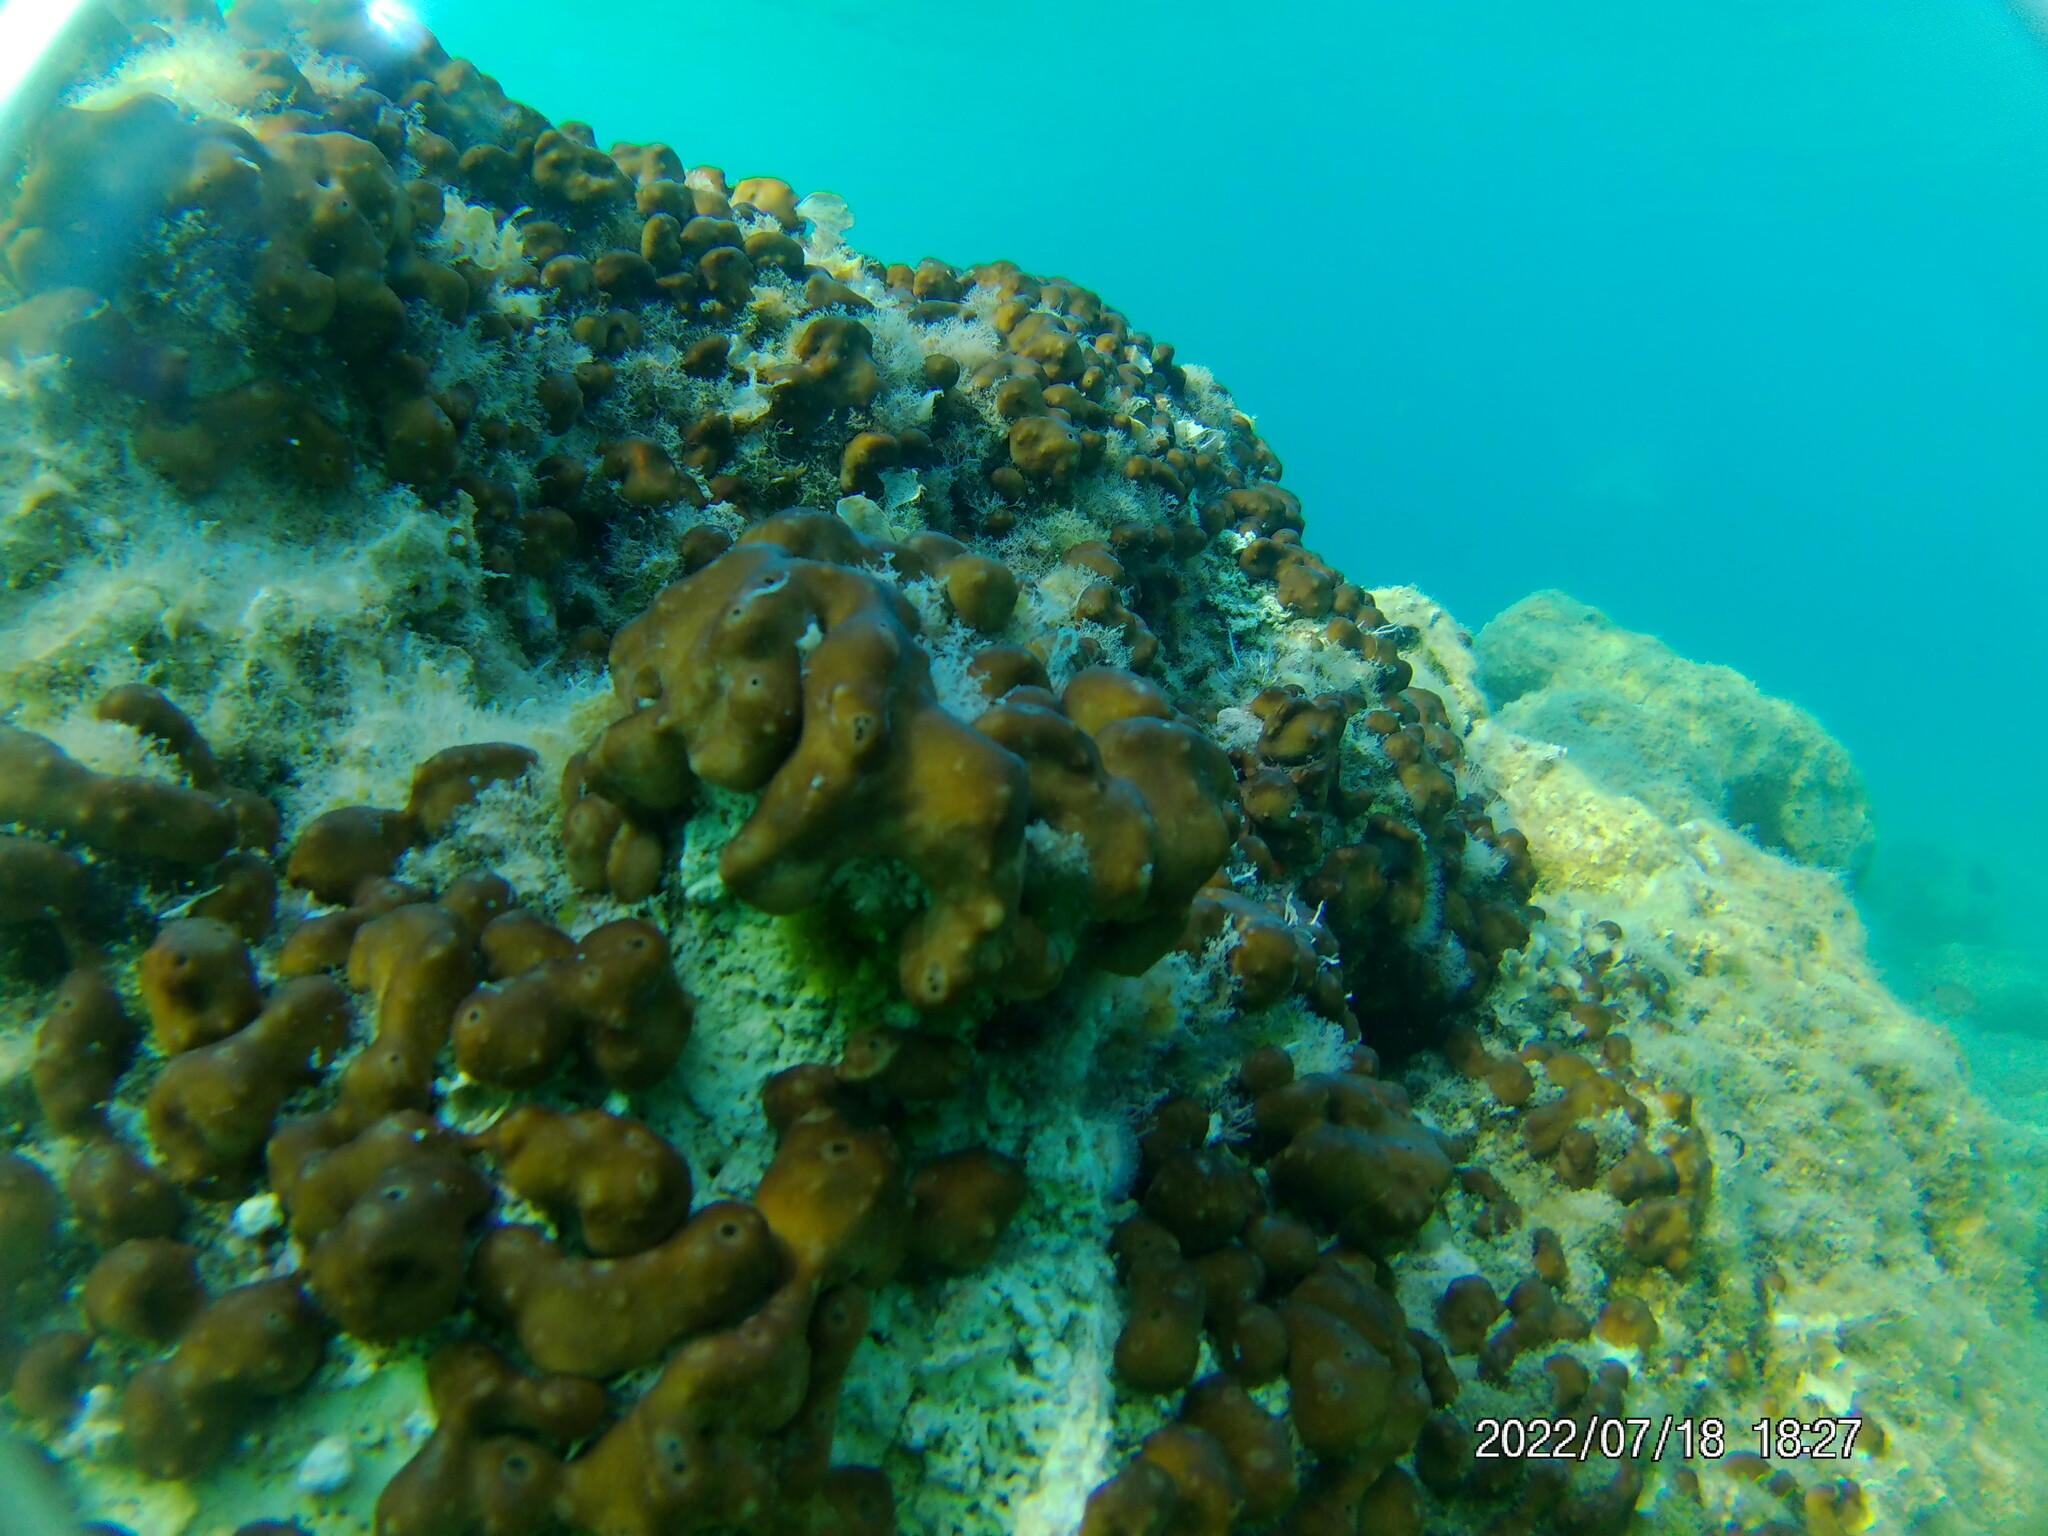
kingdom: Animalia
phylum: Porifera
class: Demospongiae
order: Chondrillida
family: Chondrillidae
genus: Chondrilla
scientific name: Chondrilla nucula
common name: Chicken liver sponge
